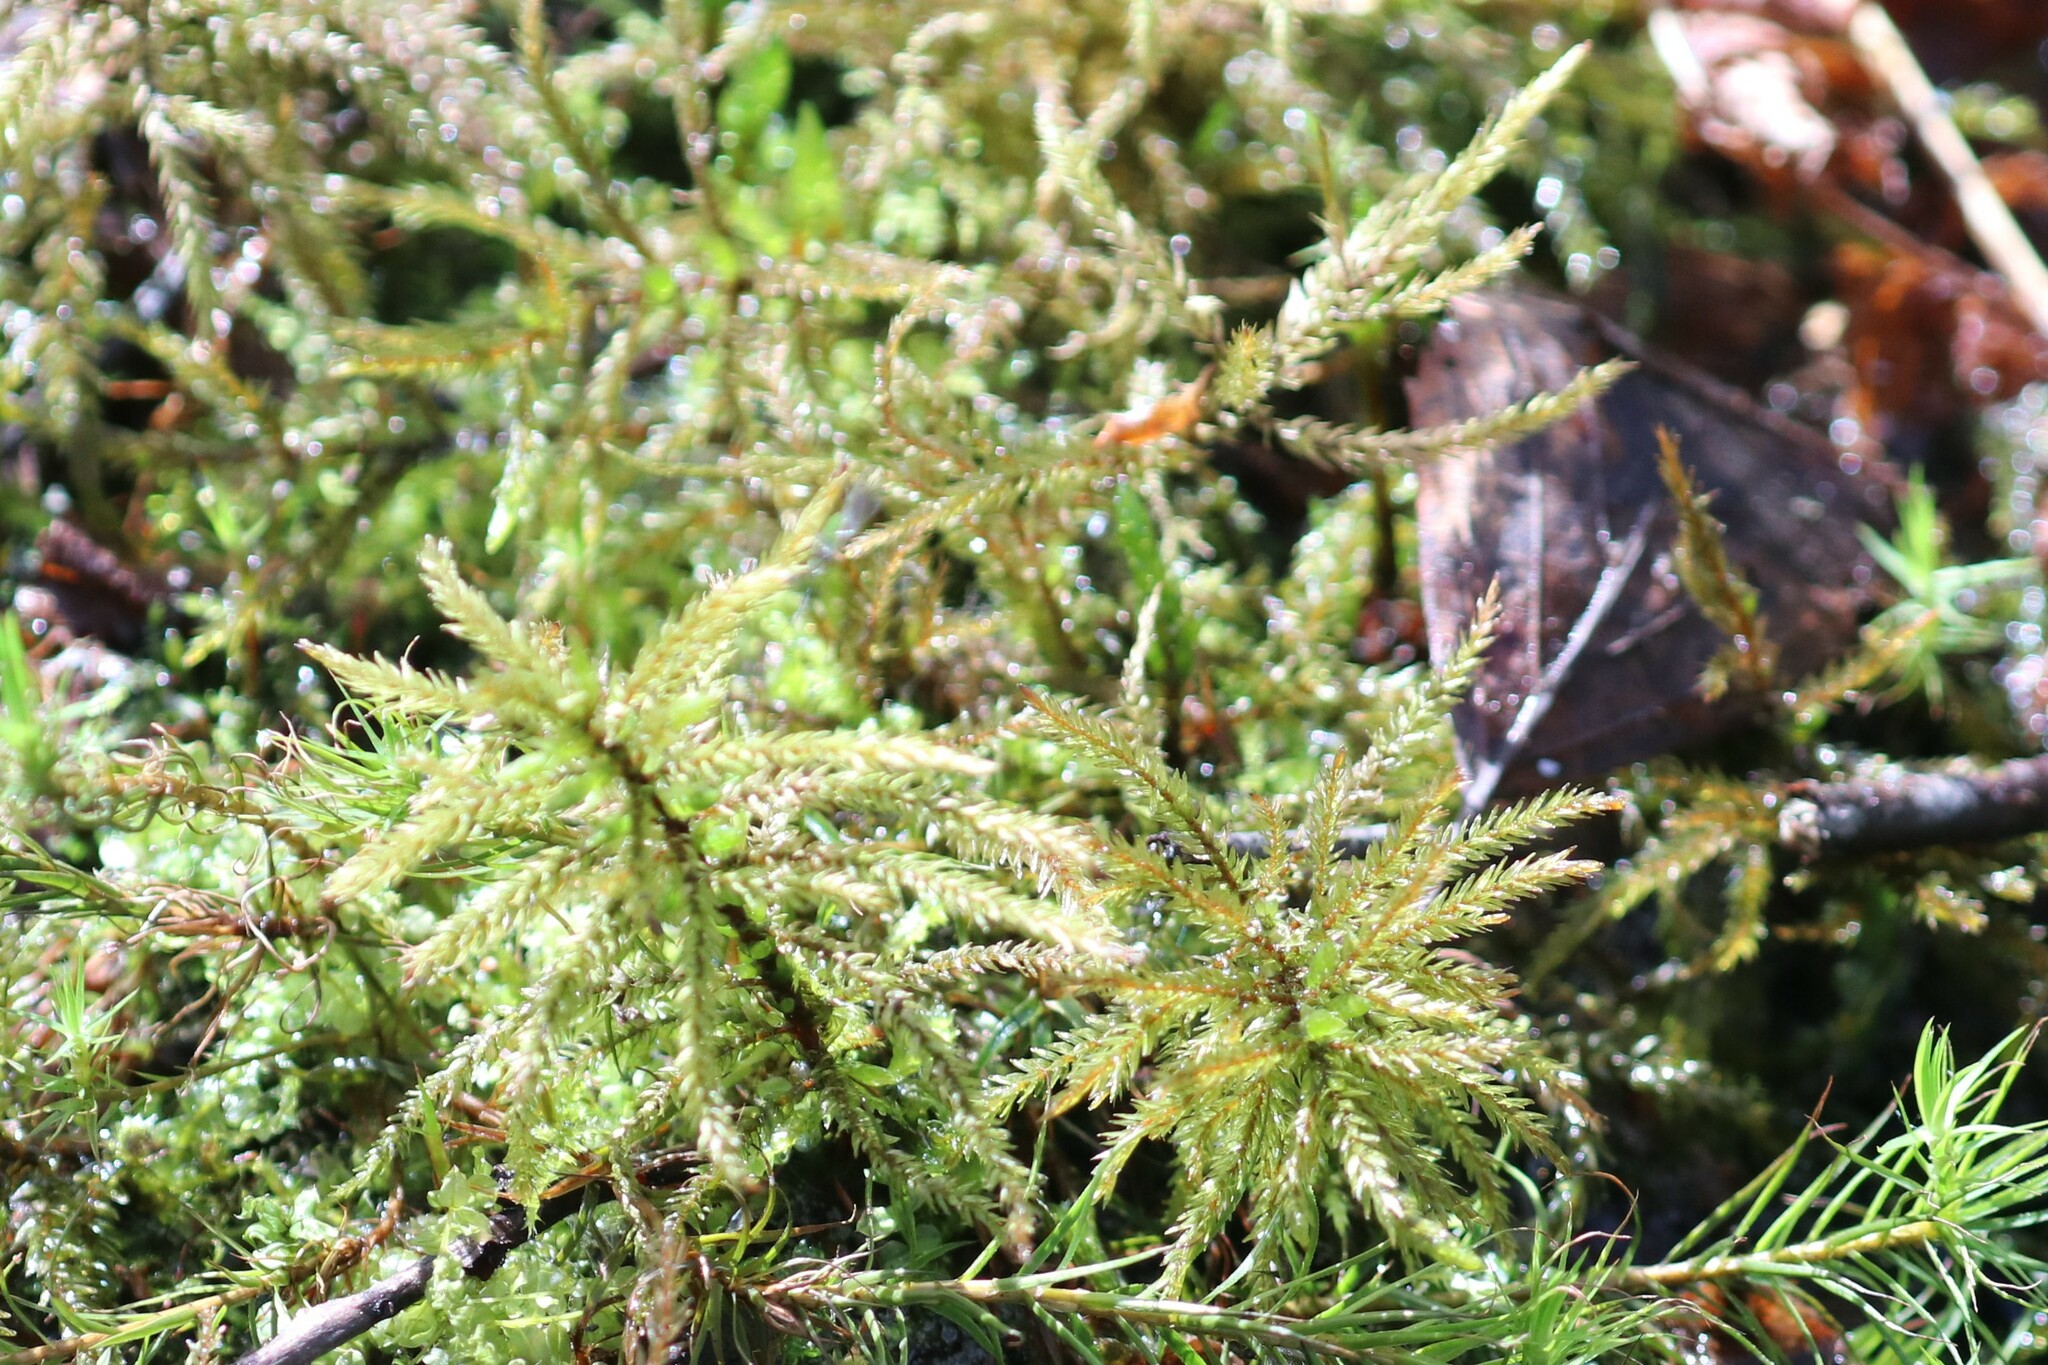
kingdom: Plantae
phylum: Bryophyta
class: Bryopsida
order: Hypnales
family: Climaciaceae
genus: Climacium
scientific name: Climacium dendroides
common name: Northern tree moss
